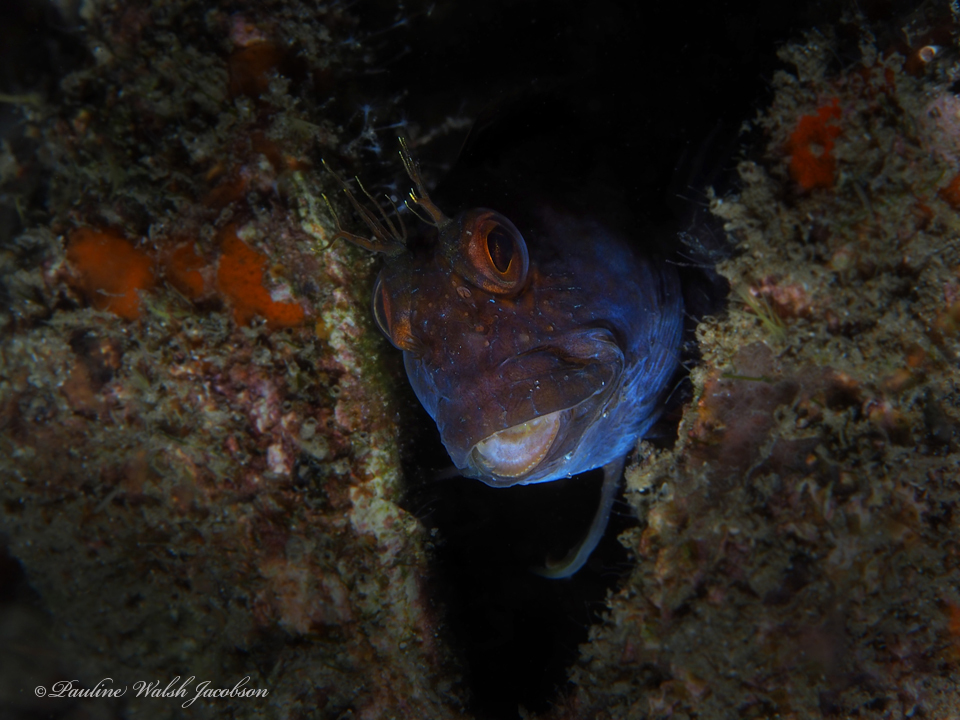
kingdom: Animalia
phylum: Chordata
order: Perciformes
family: Blenniidae
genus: Parablennius
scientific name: Parablennius marmoreus
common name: Seaweed blenny
